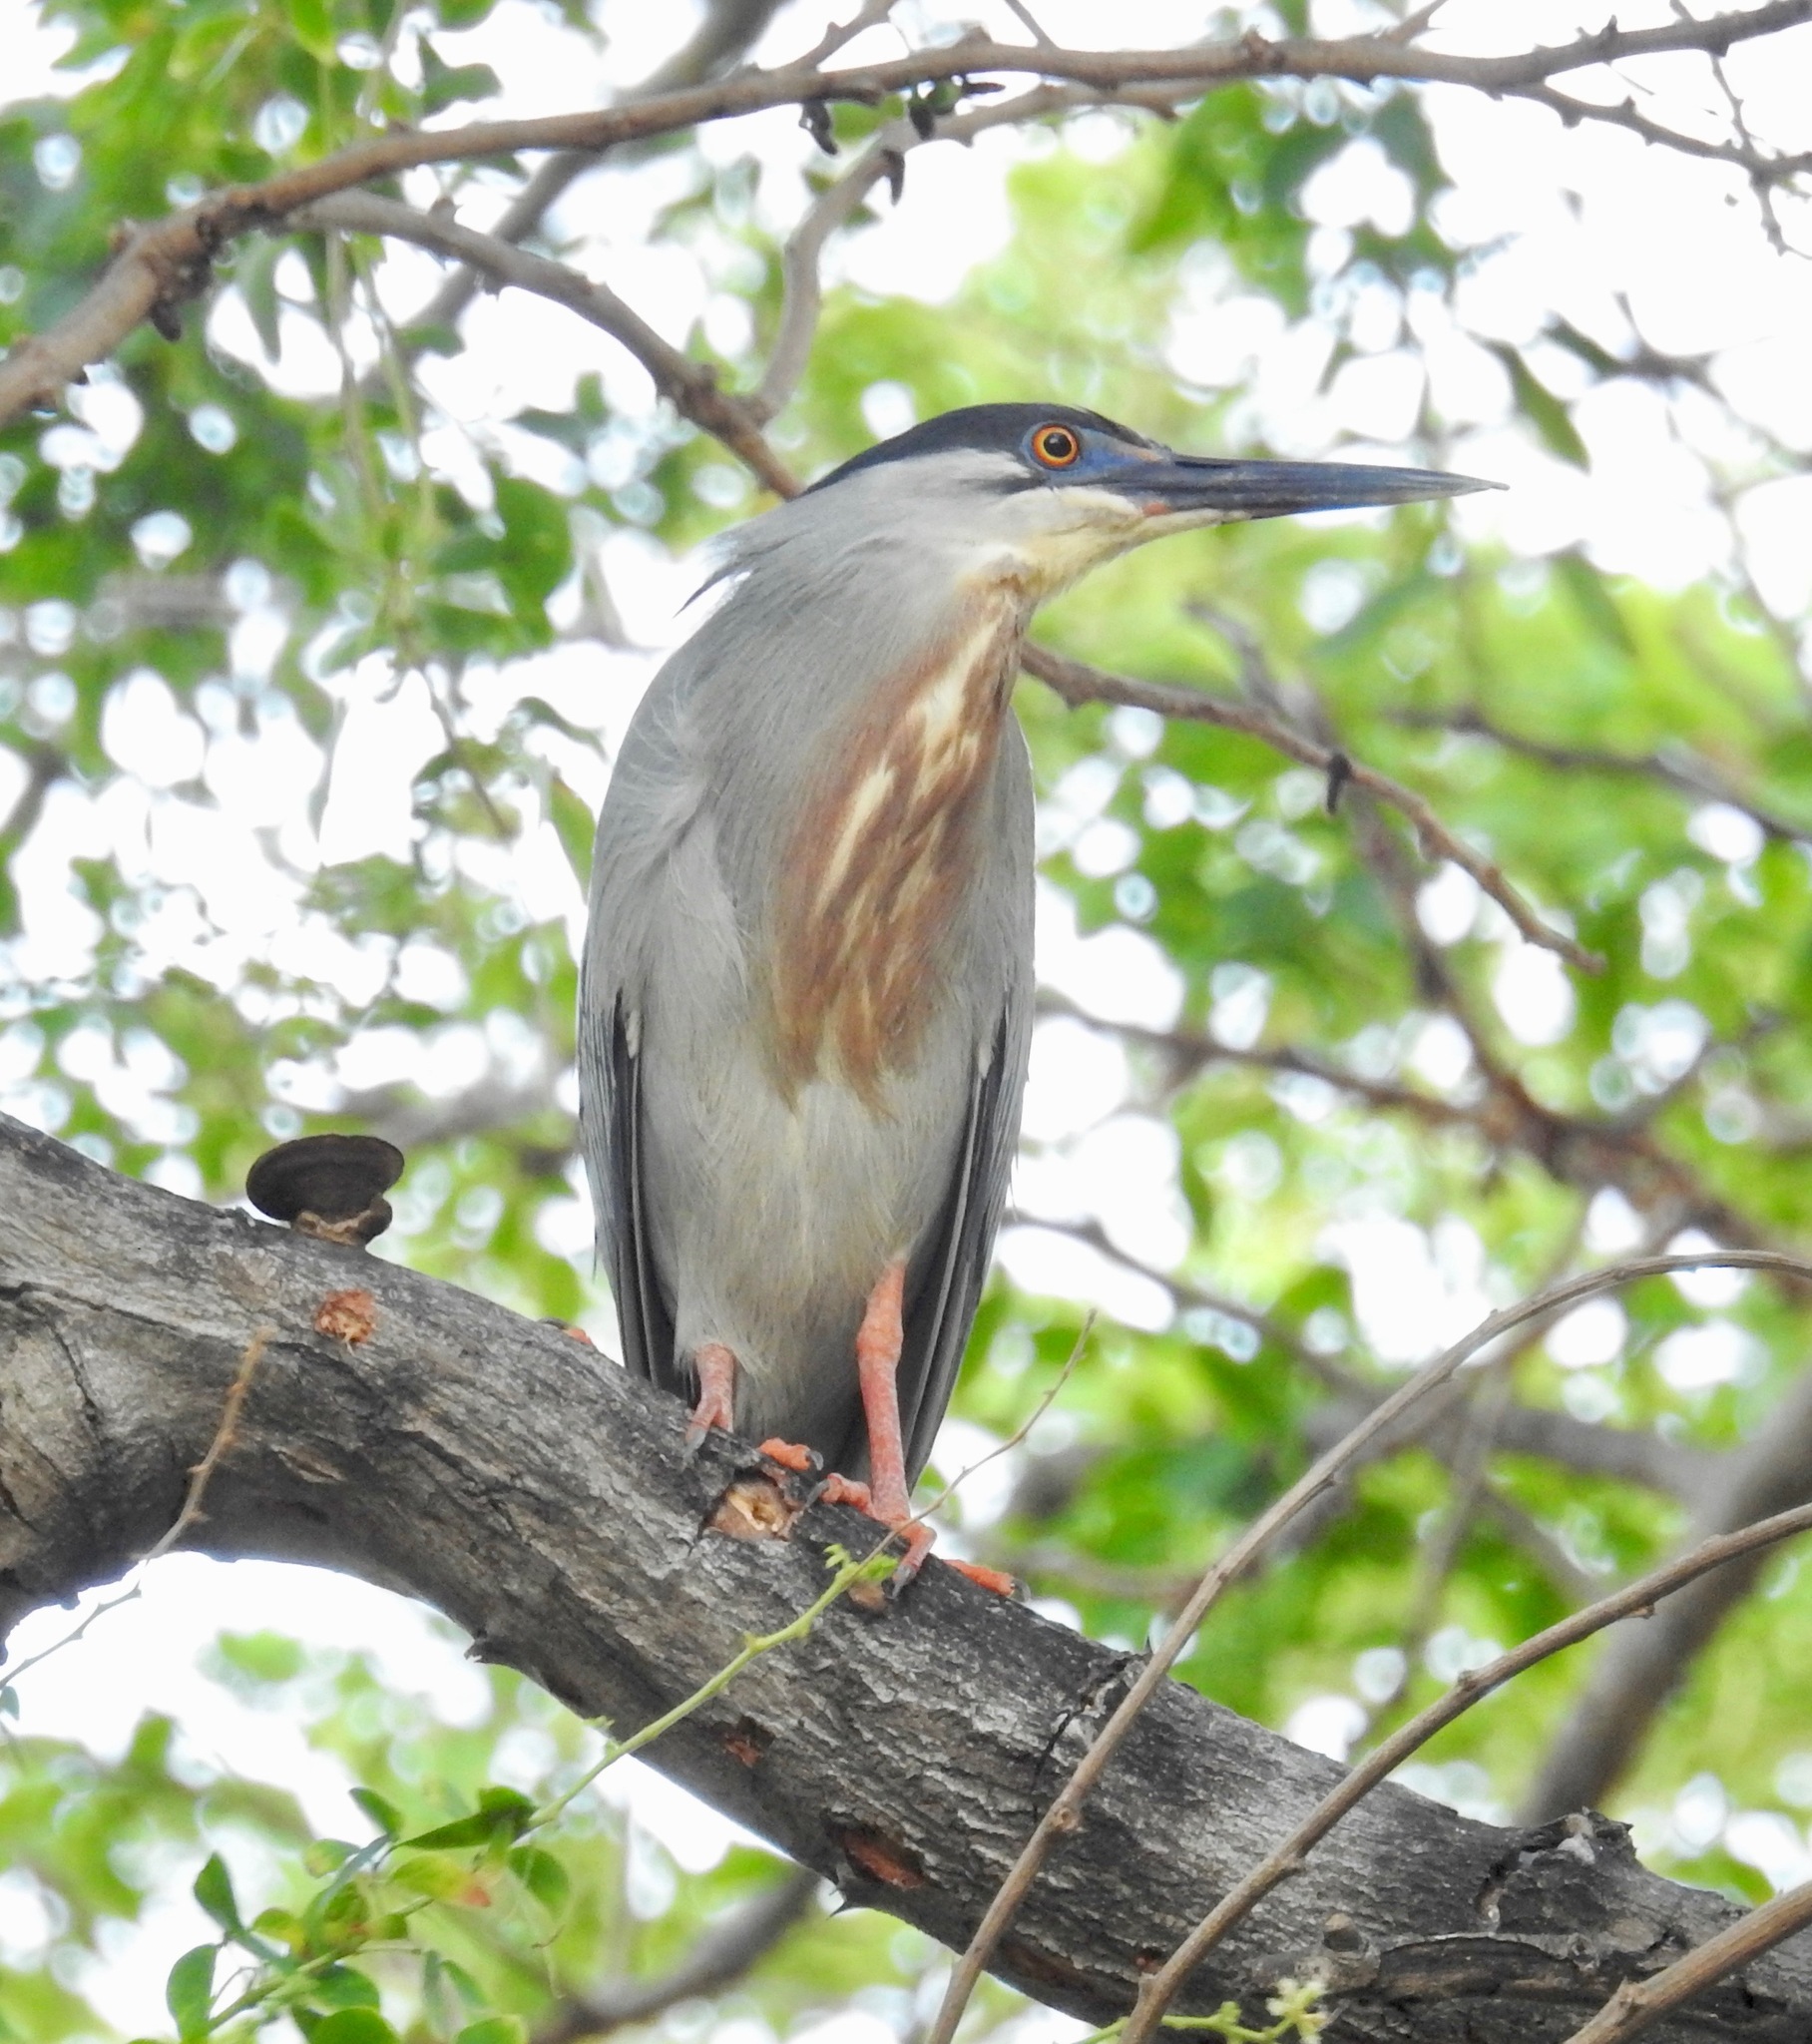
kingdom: Animalia
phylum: Chordata
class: Aves
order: Pelecaniformes
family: Ardeidae
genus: Butorides
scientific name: Butorides striata
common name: Striated heron
